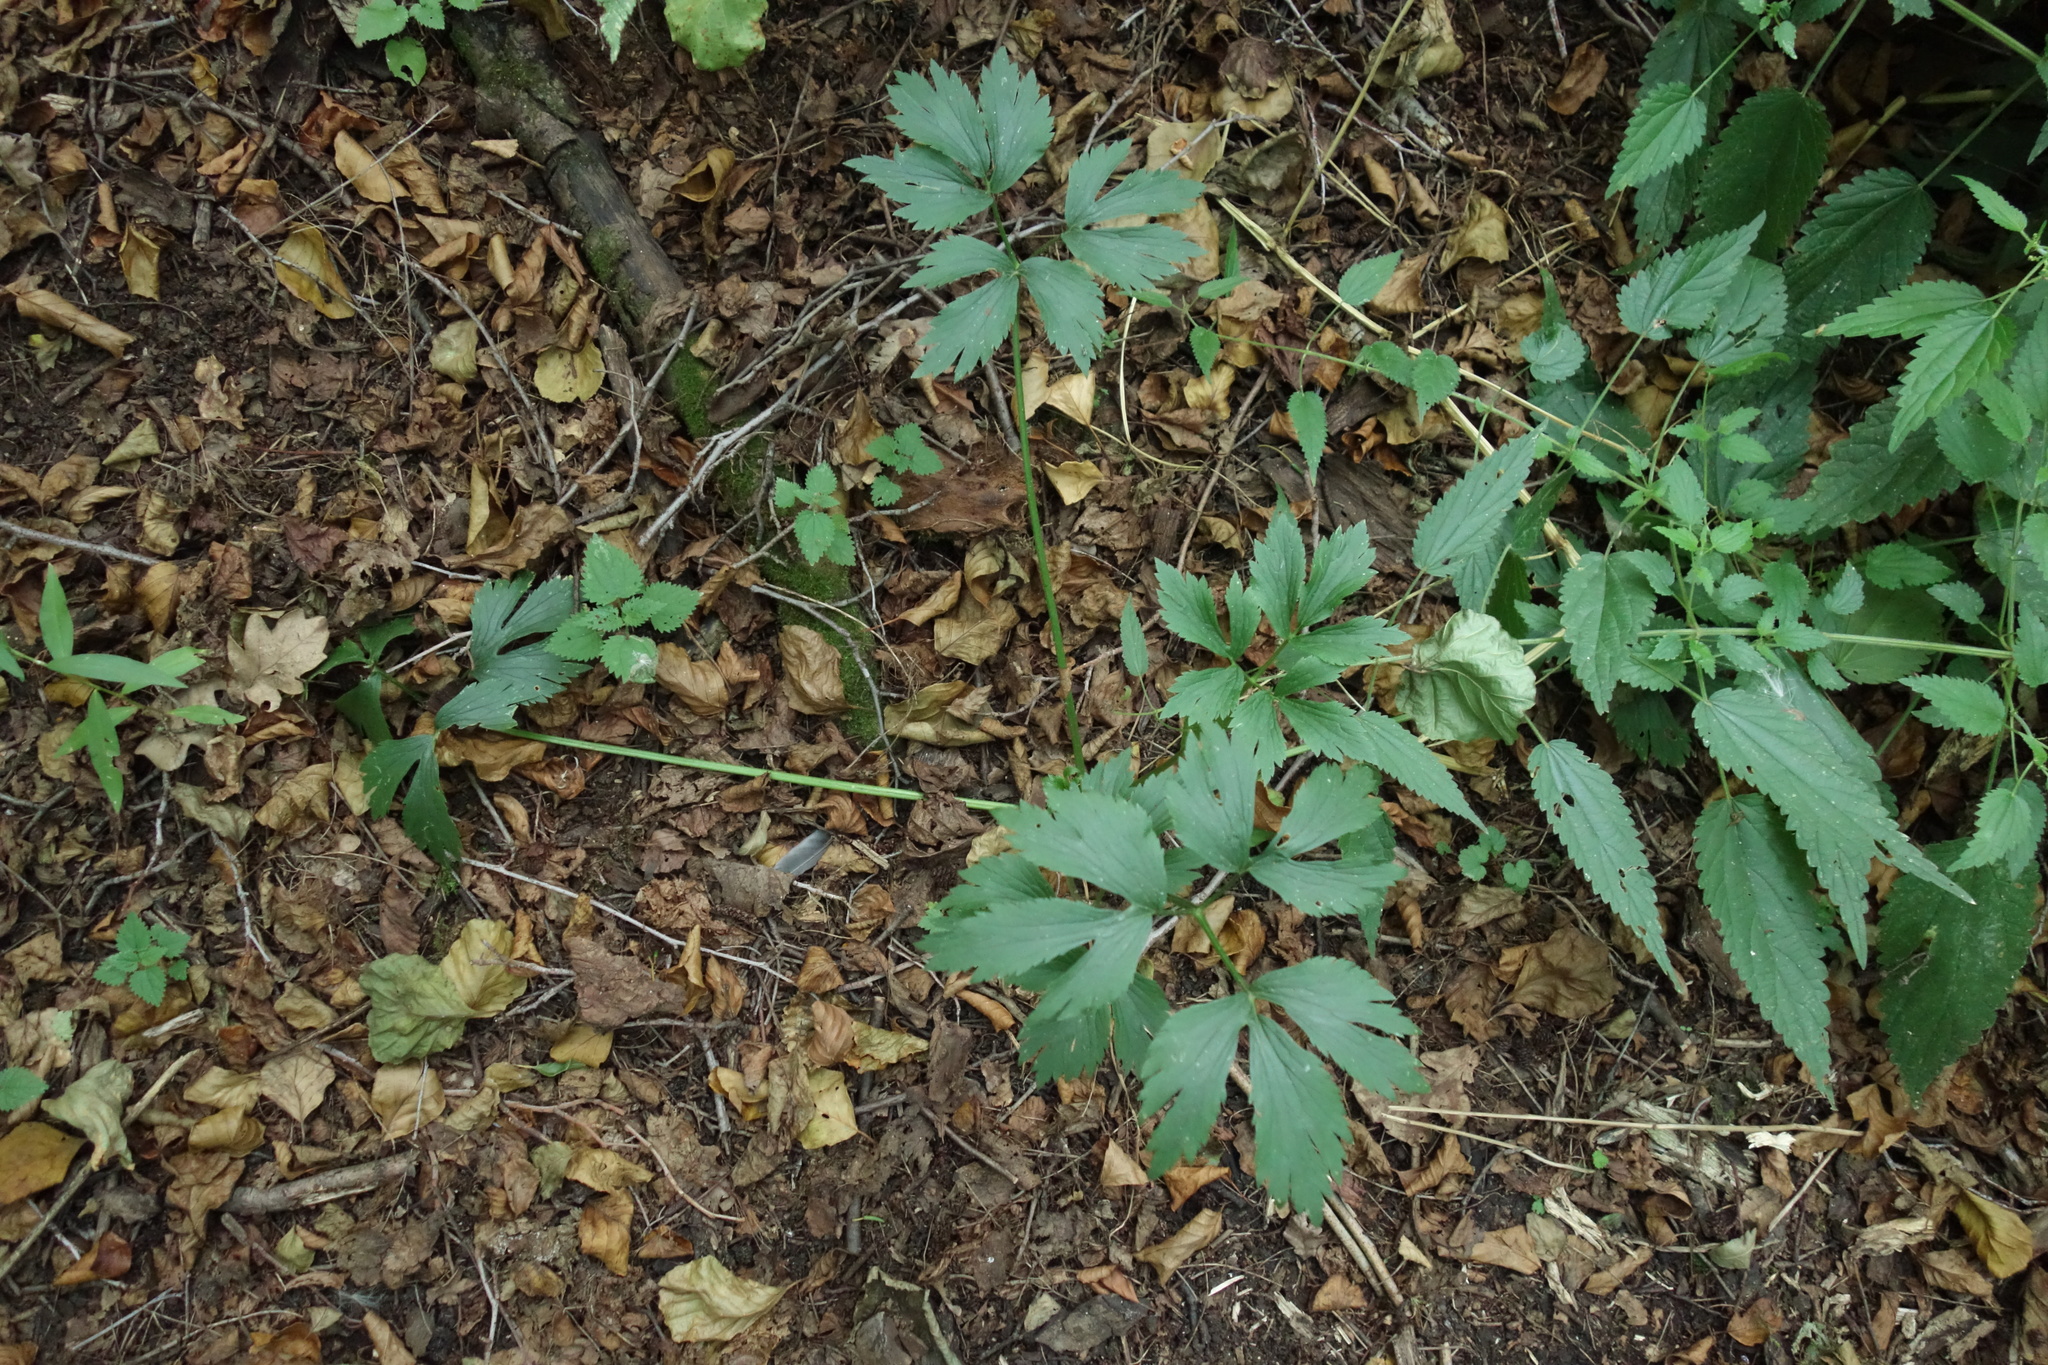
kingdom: Plantae
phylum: Tracheophyta
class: Magnoliopsida
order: Ranunculales
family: Ranunculaceae
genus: Ranunculus
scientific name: Ranunculus repens
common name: Creeping buttercup
